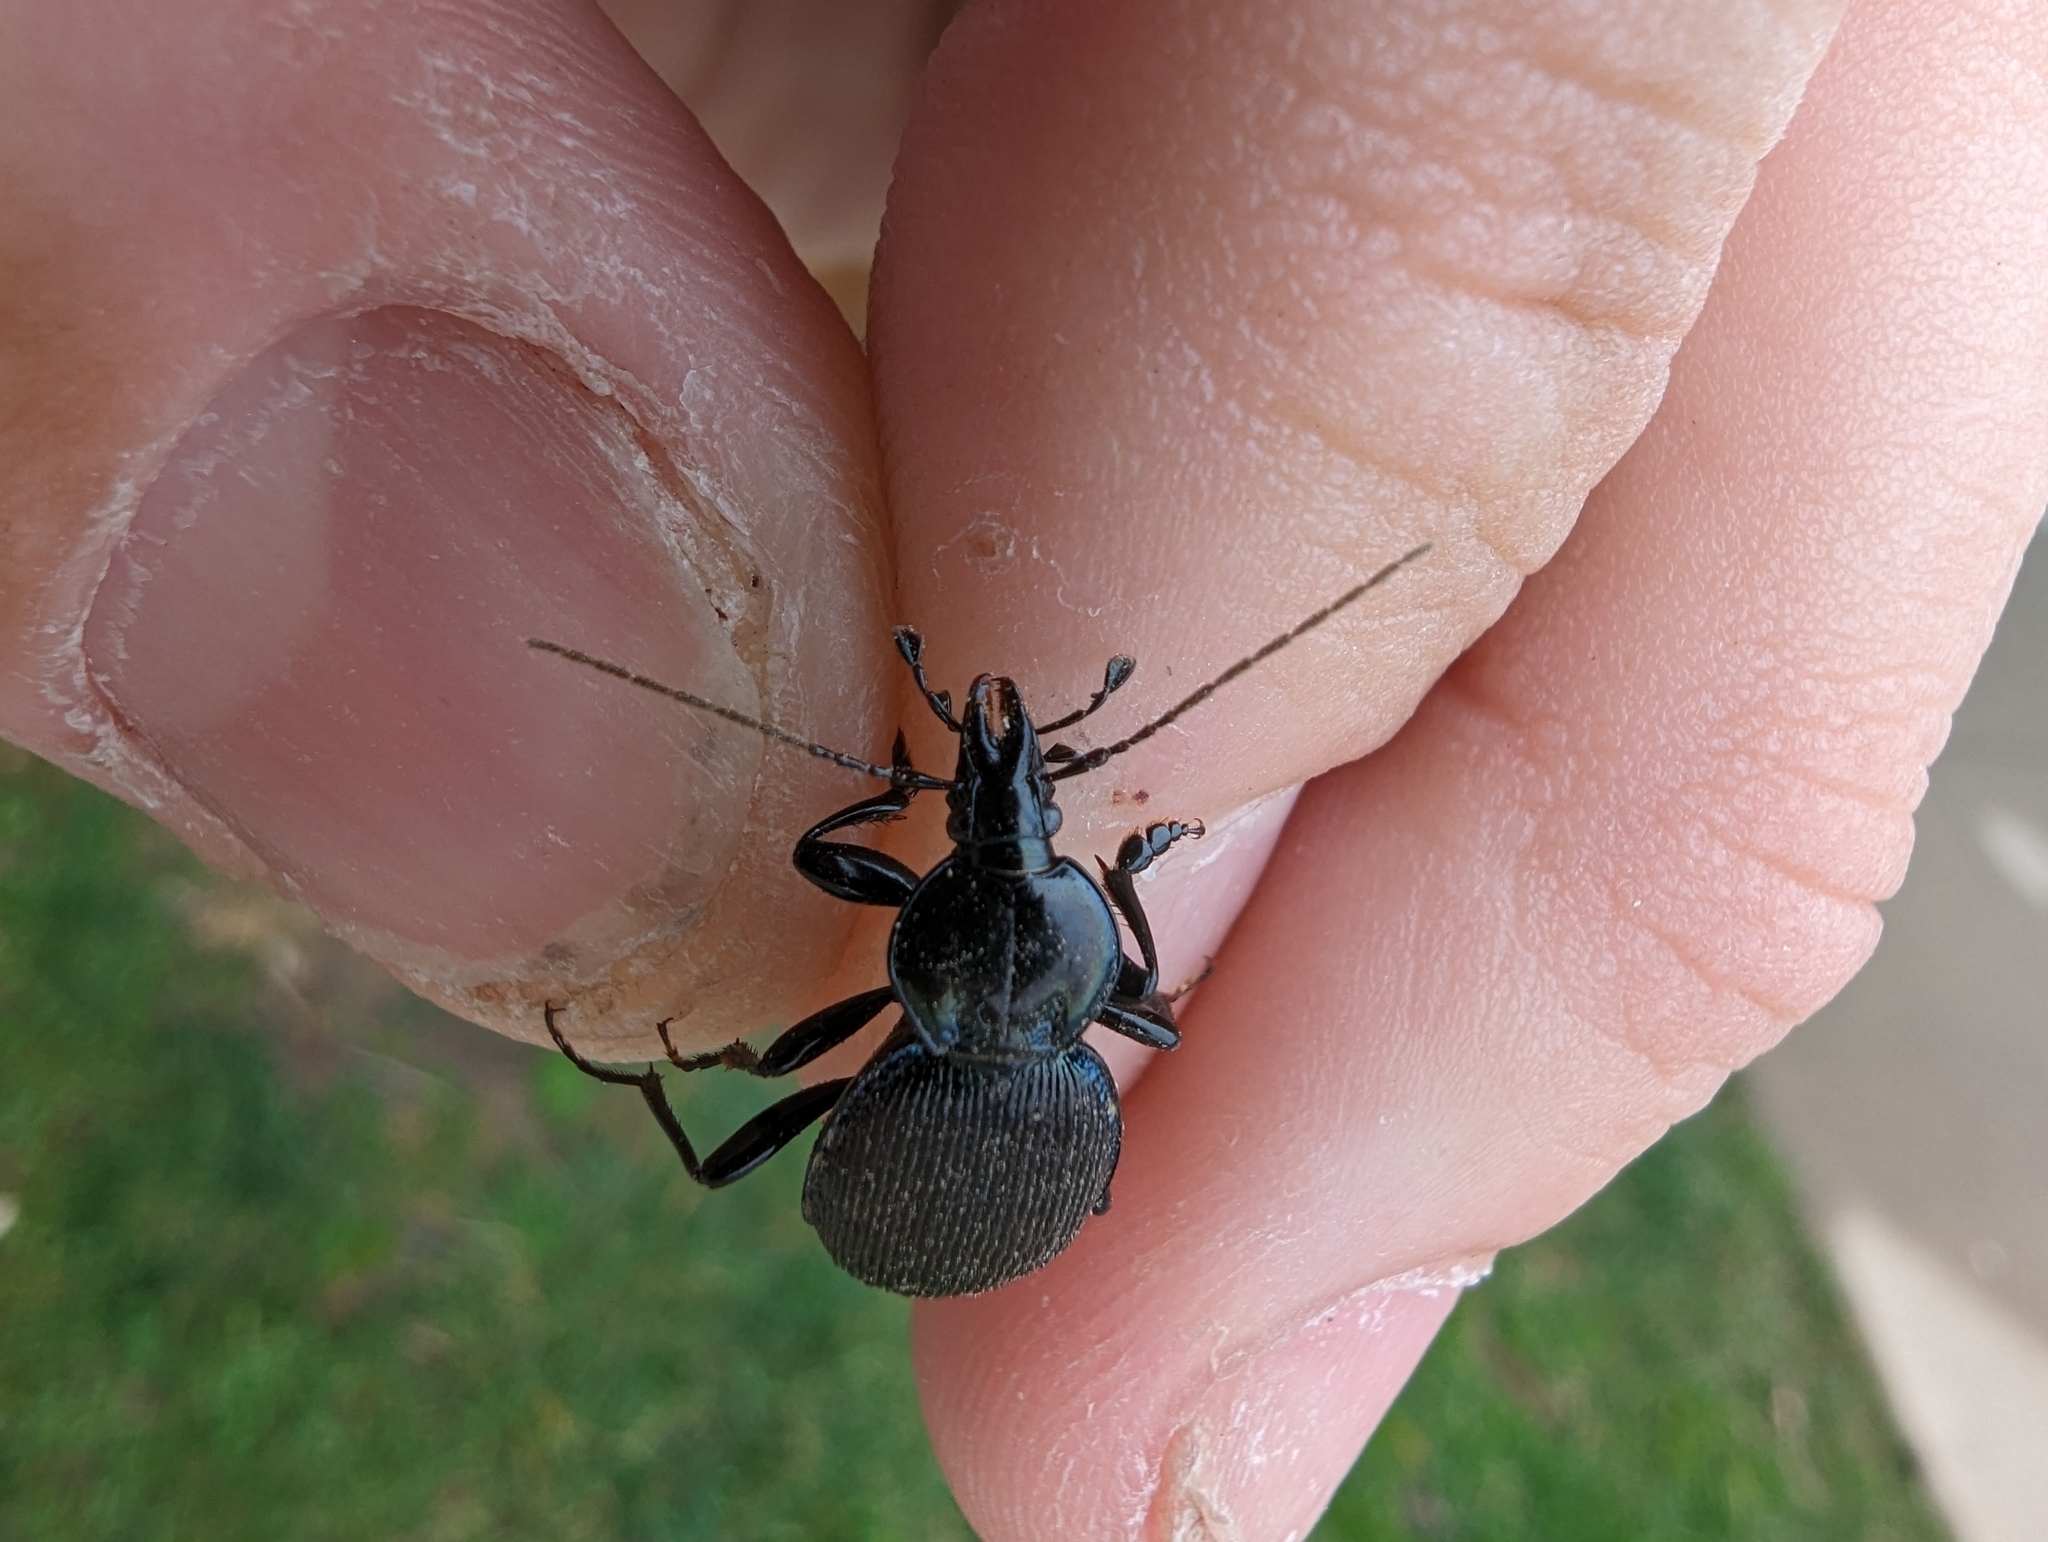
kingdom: Animalia
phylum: Arthropoda
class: Insecta
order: Coleoptera
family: Carabidae
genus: Sphaeroderus
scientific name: Sphaeroderus stenostomus
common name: Small snail-eating ground beetle
